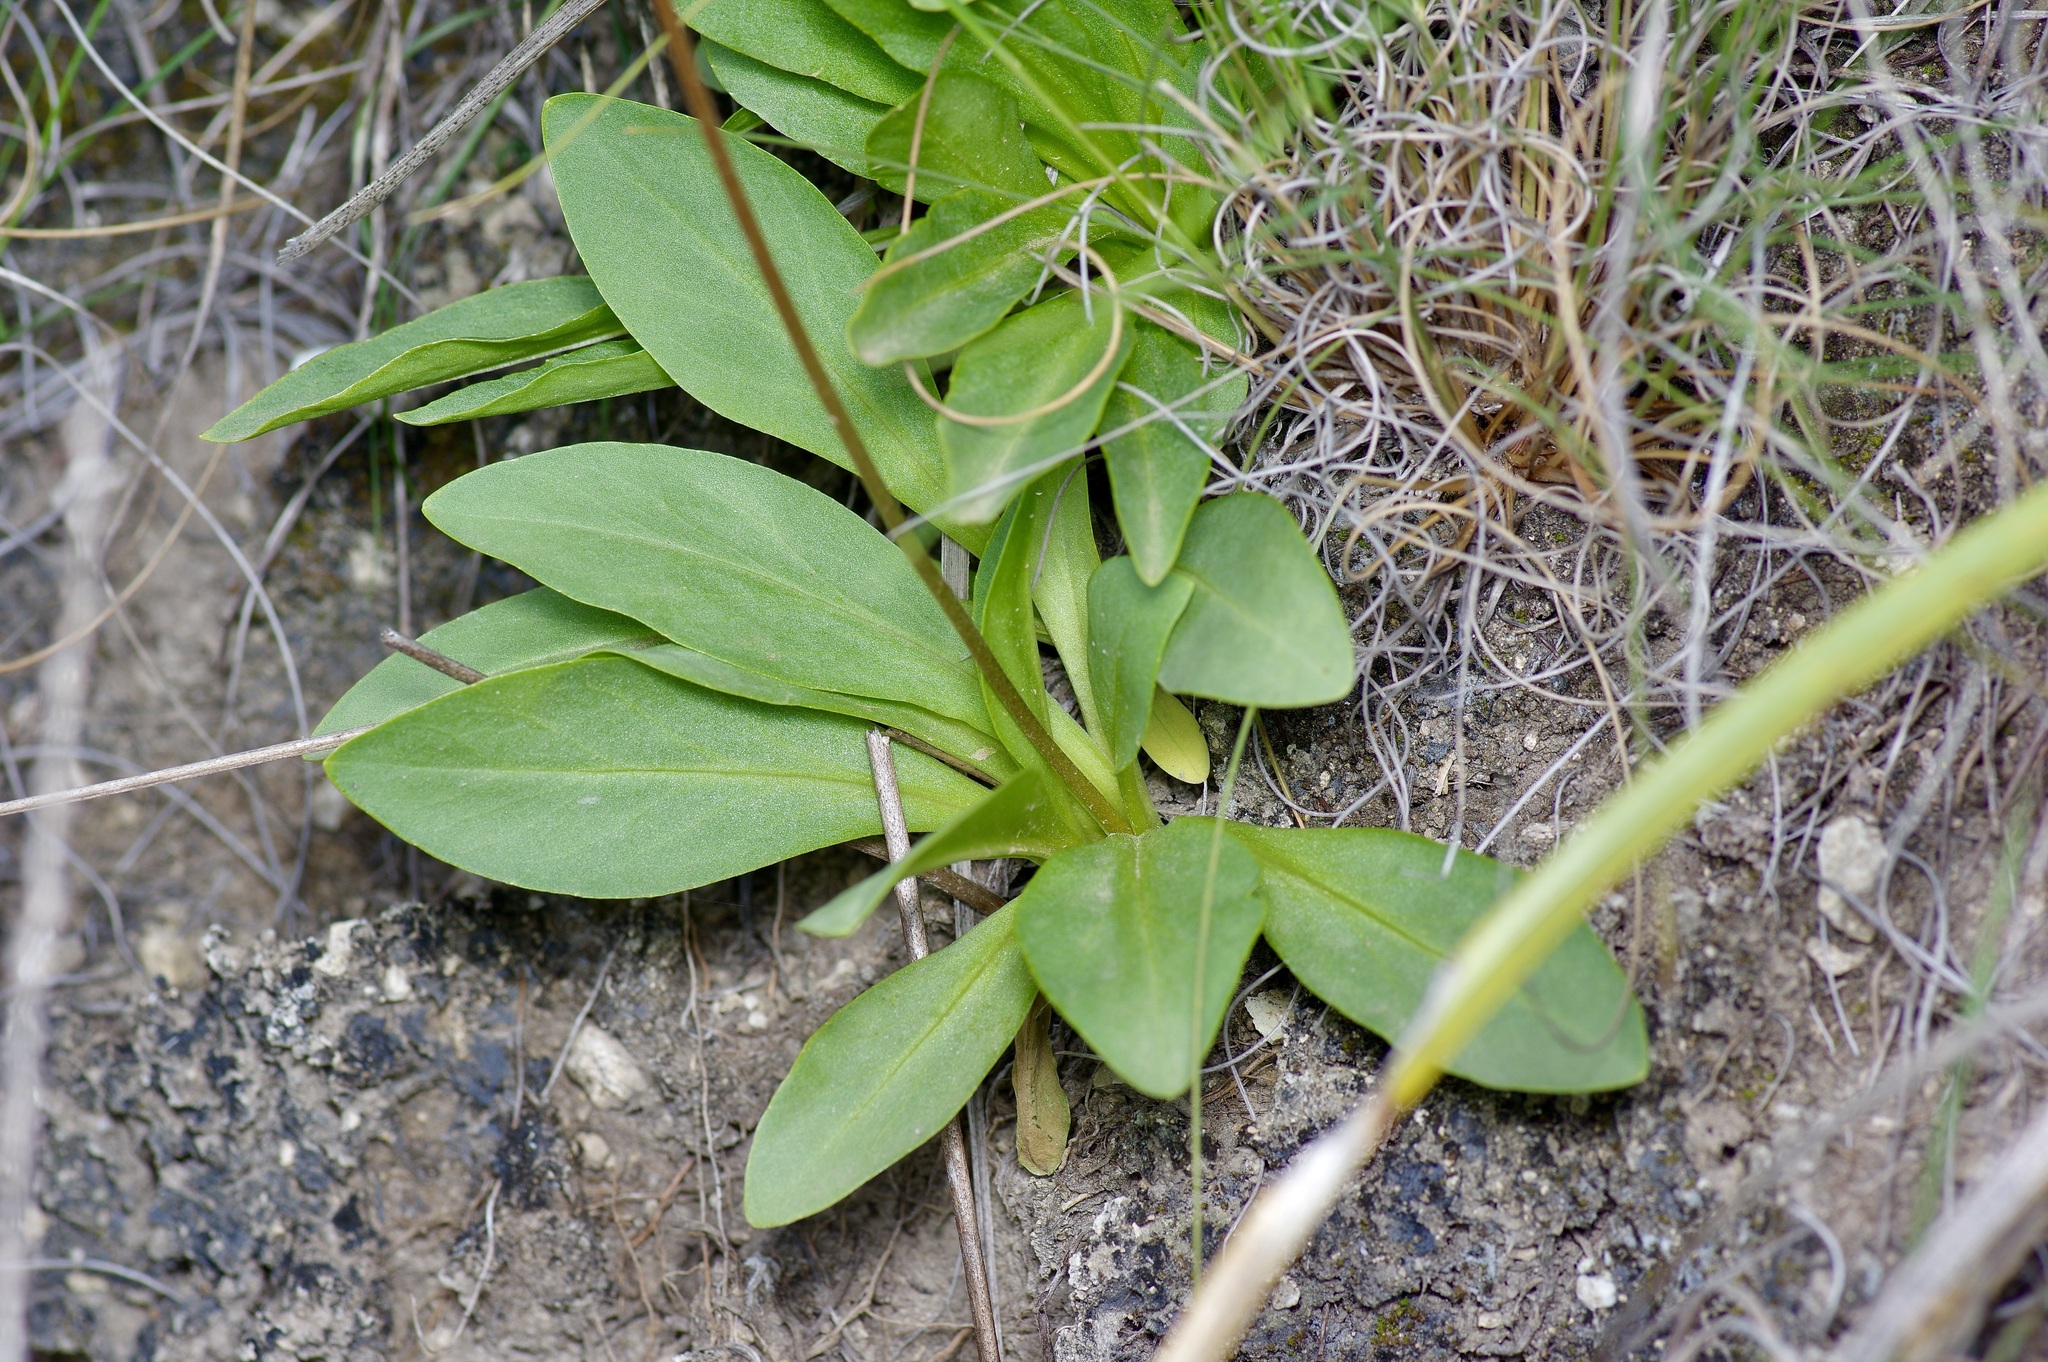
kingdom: Plantae
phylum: Tracheophyta
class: Magnoliopsida
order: Ericales
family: Primulaceae
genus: Dodecatheon
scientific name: Dodecatheon meadia
